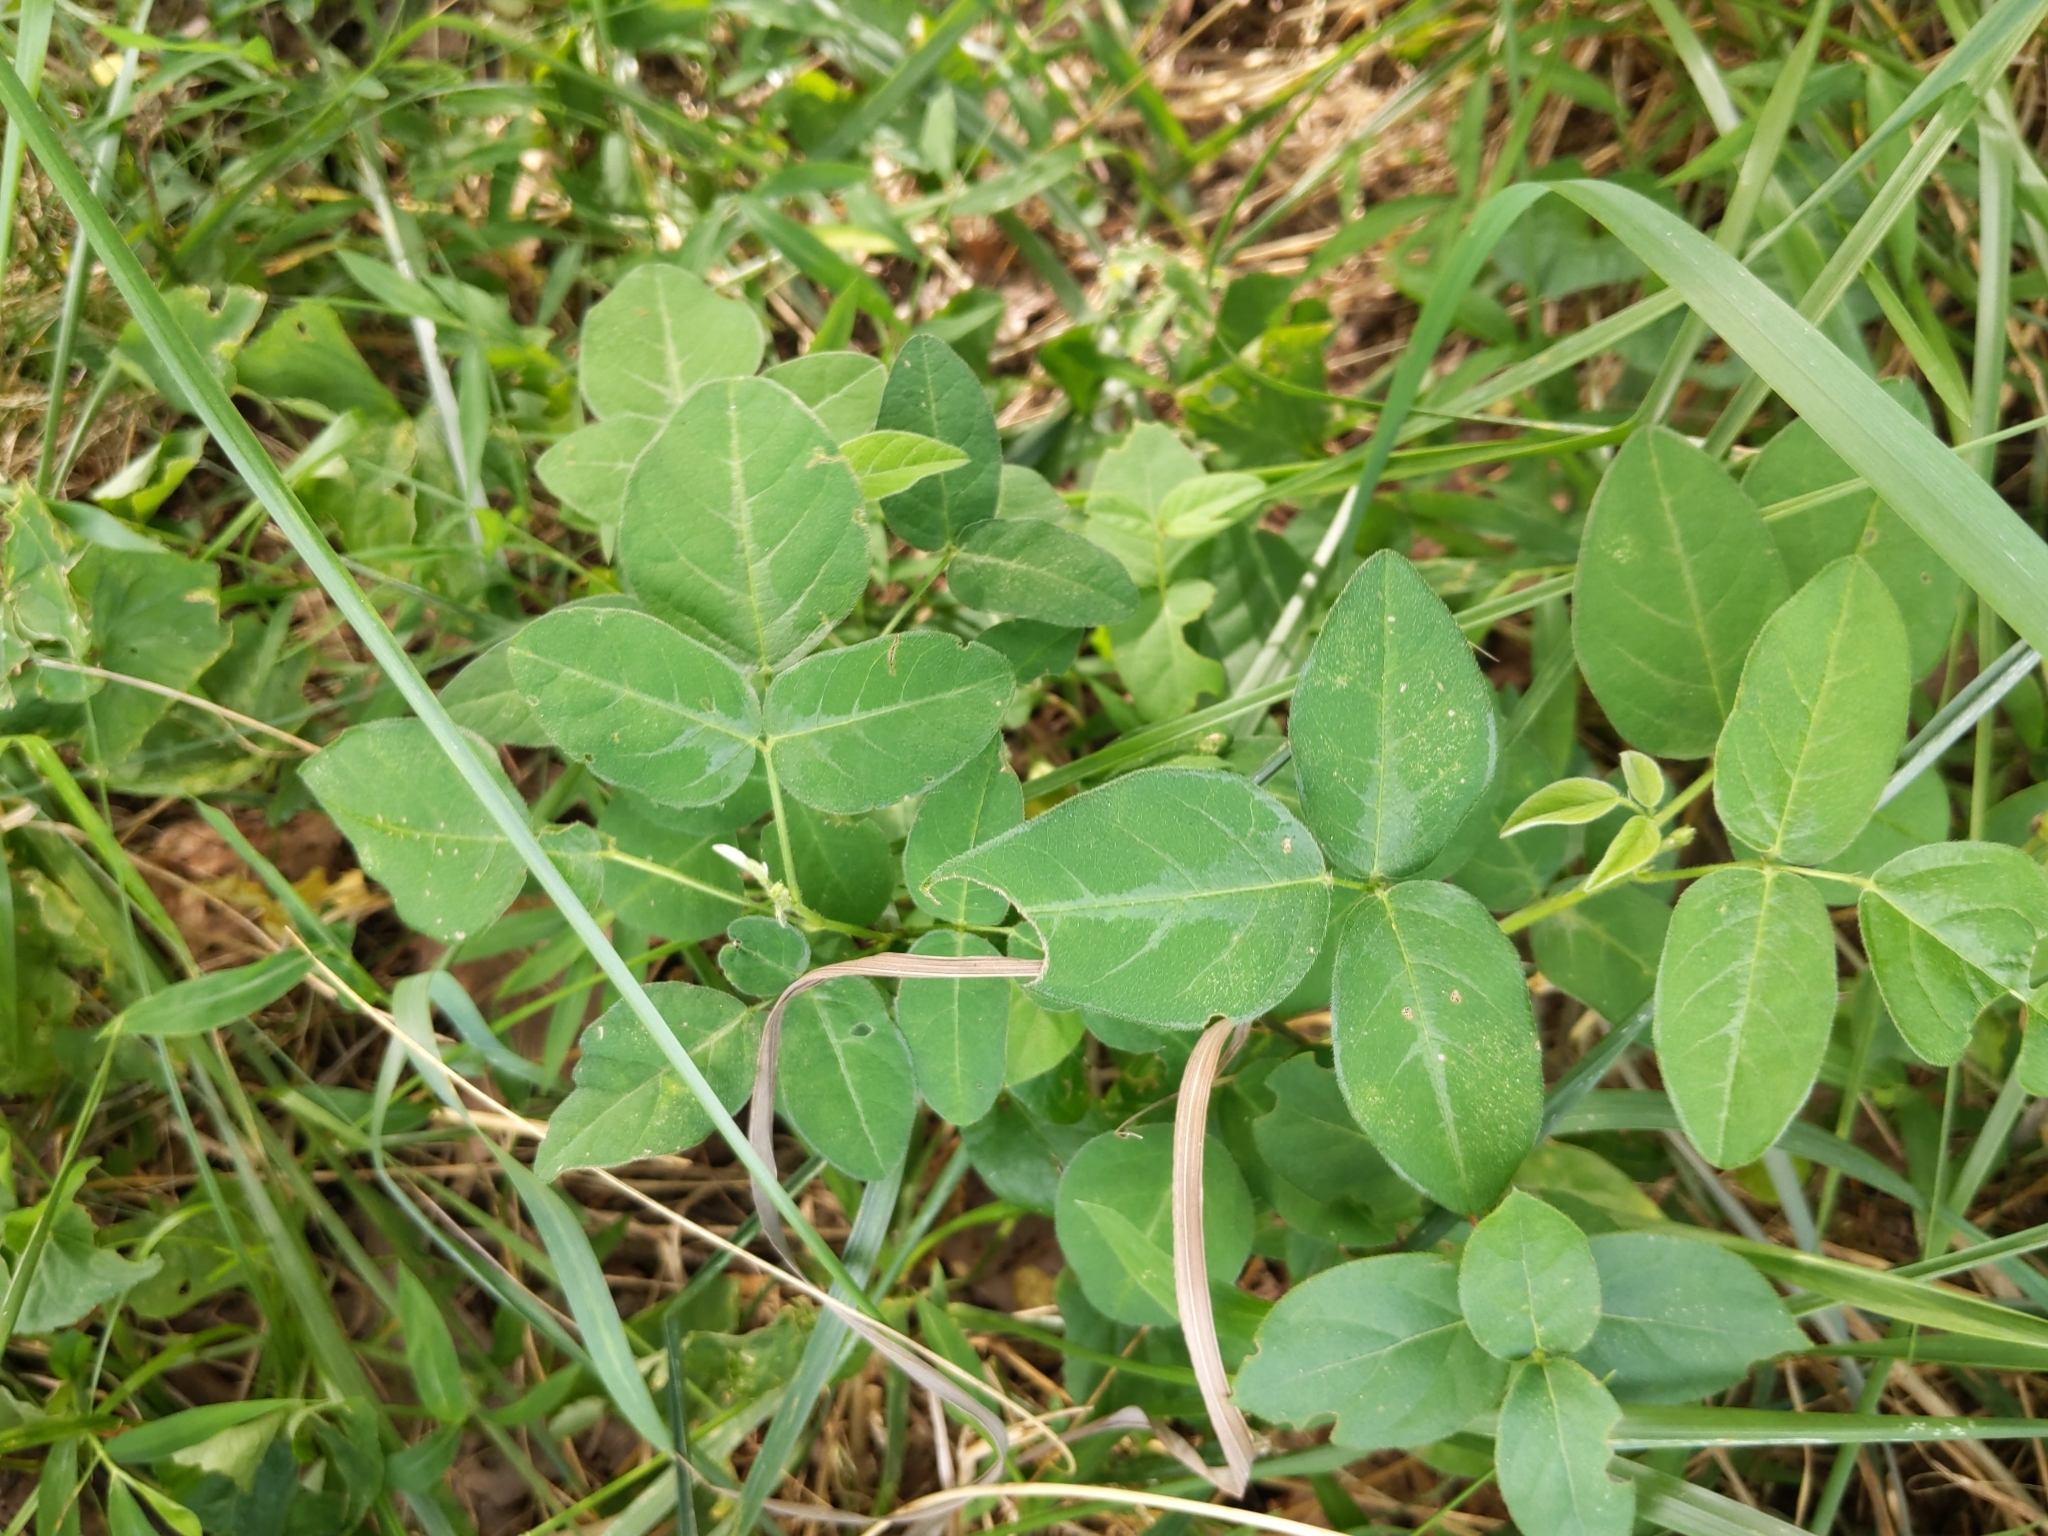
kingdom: Plantae
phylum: Tracheophyta
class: Magnoliopsida
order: Fabales
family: Fabaceae
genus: Desmodium
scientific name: Desmodium
